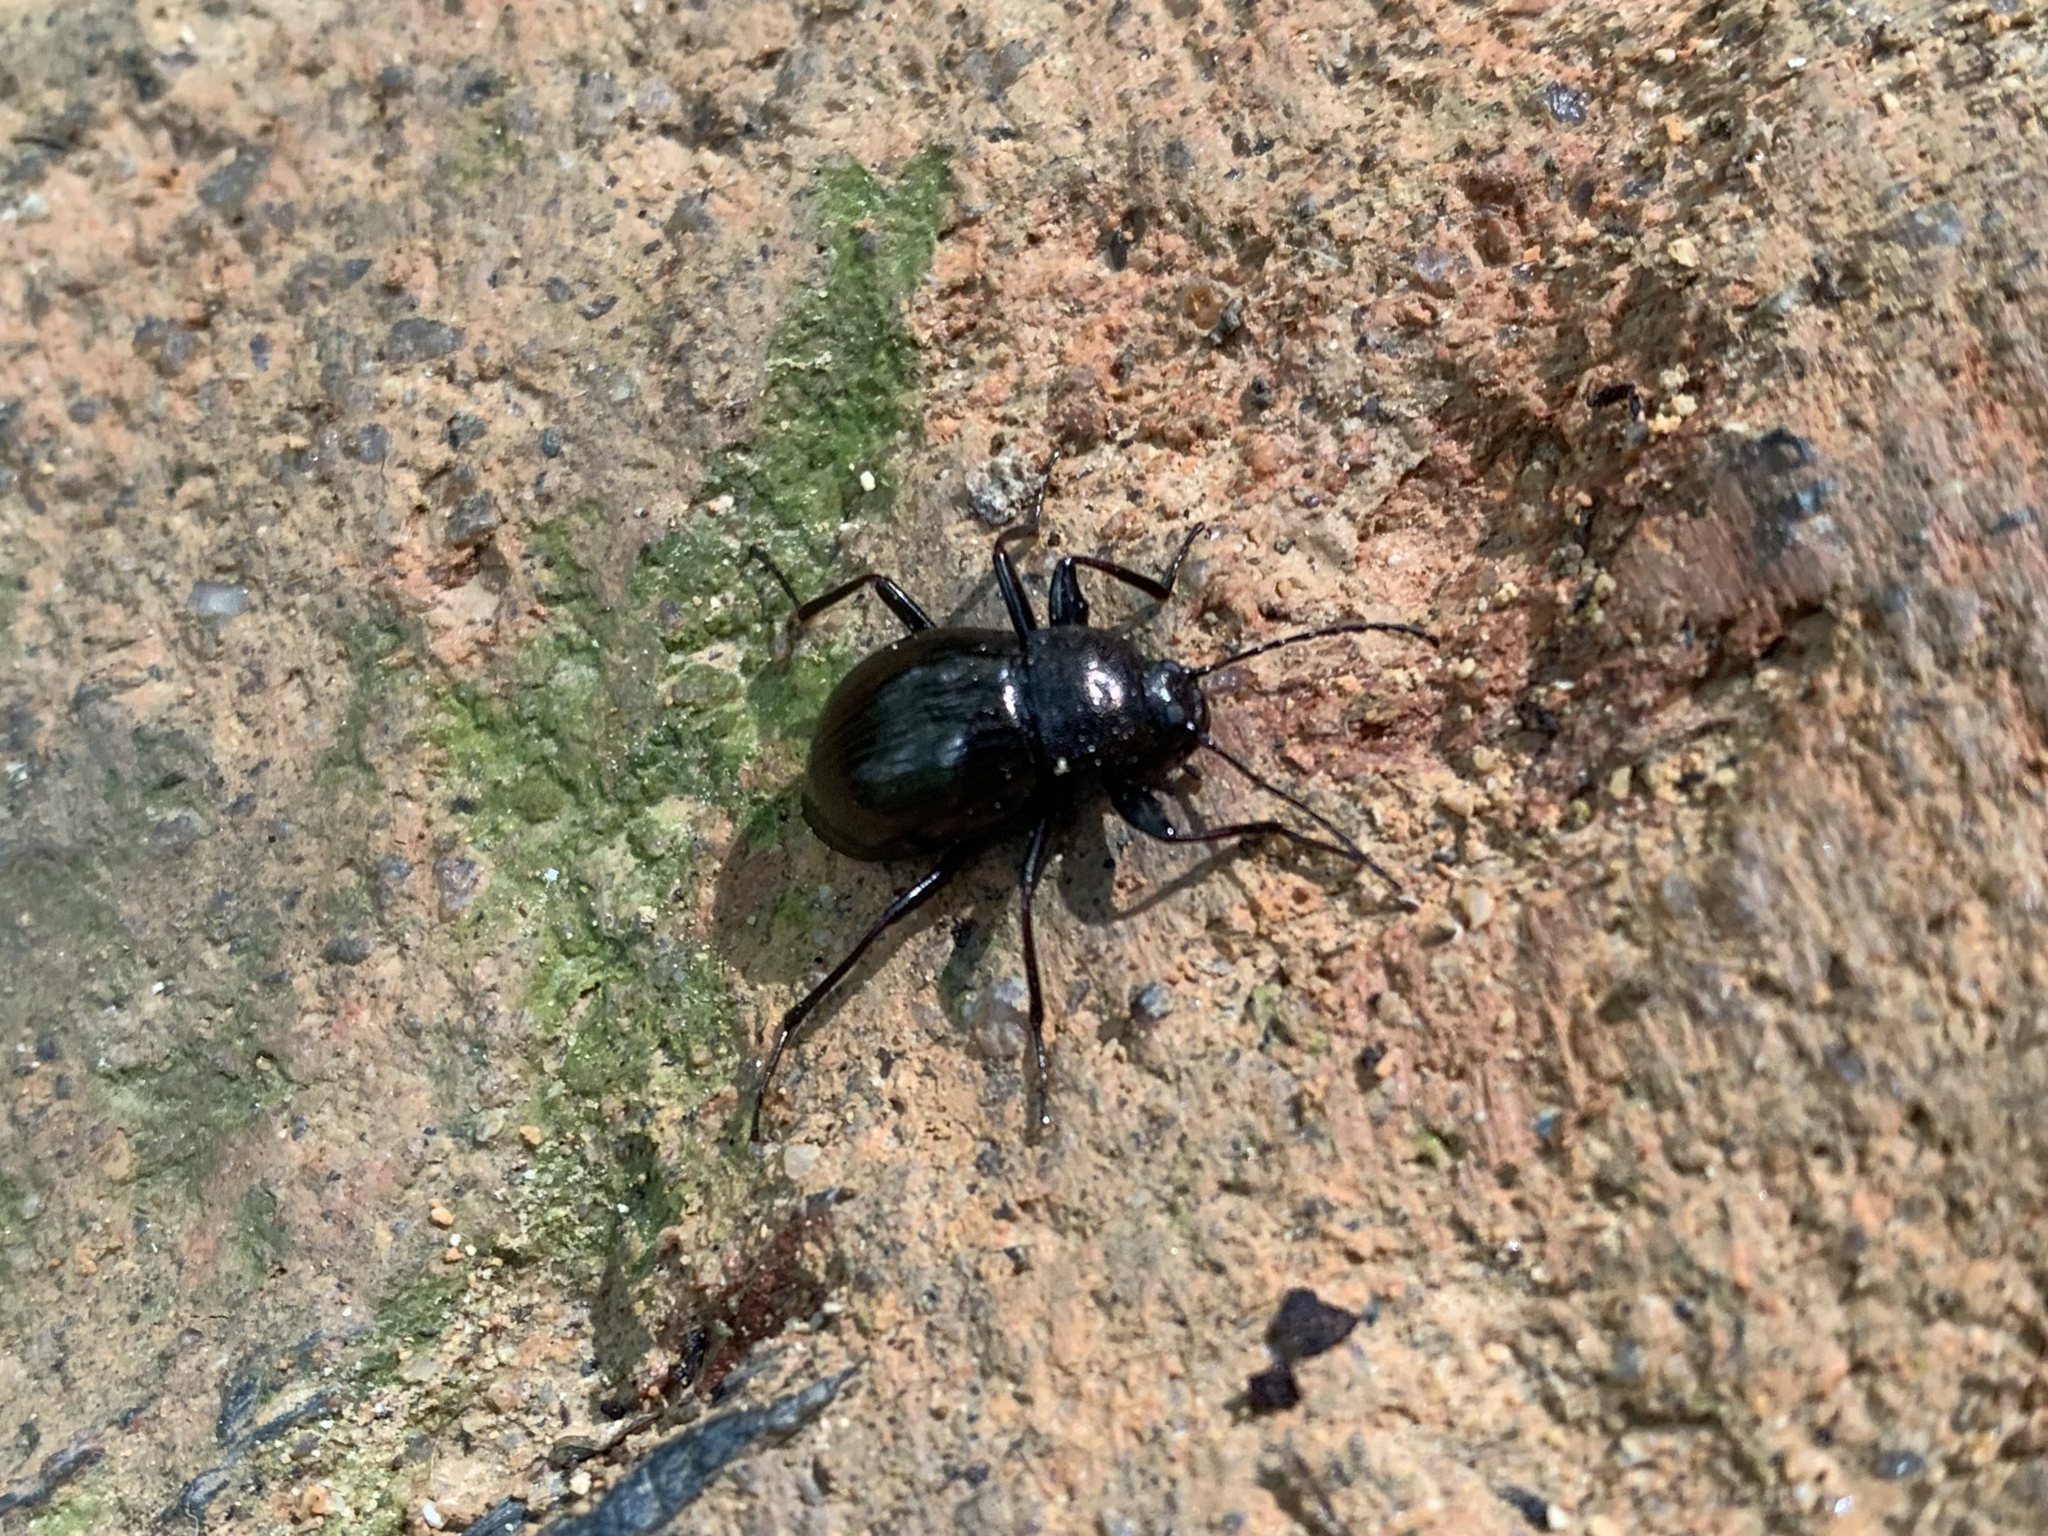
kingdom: Animalia
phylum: Arthropoda
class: Insecta
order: Coleoptera
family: Tenebrionidae
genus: Meracantha
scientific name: Meracantha contracta
